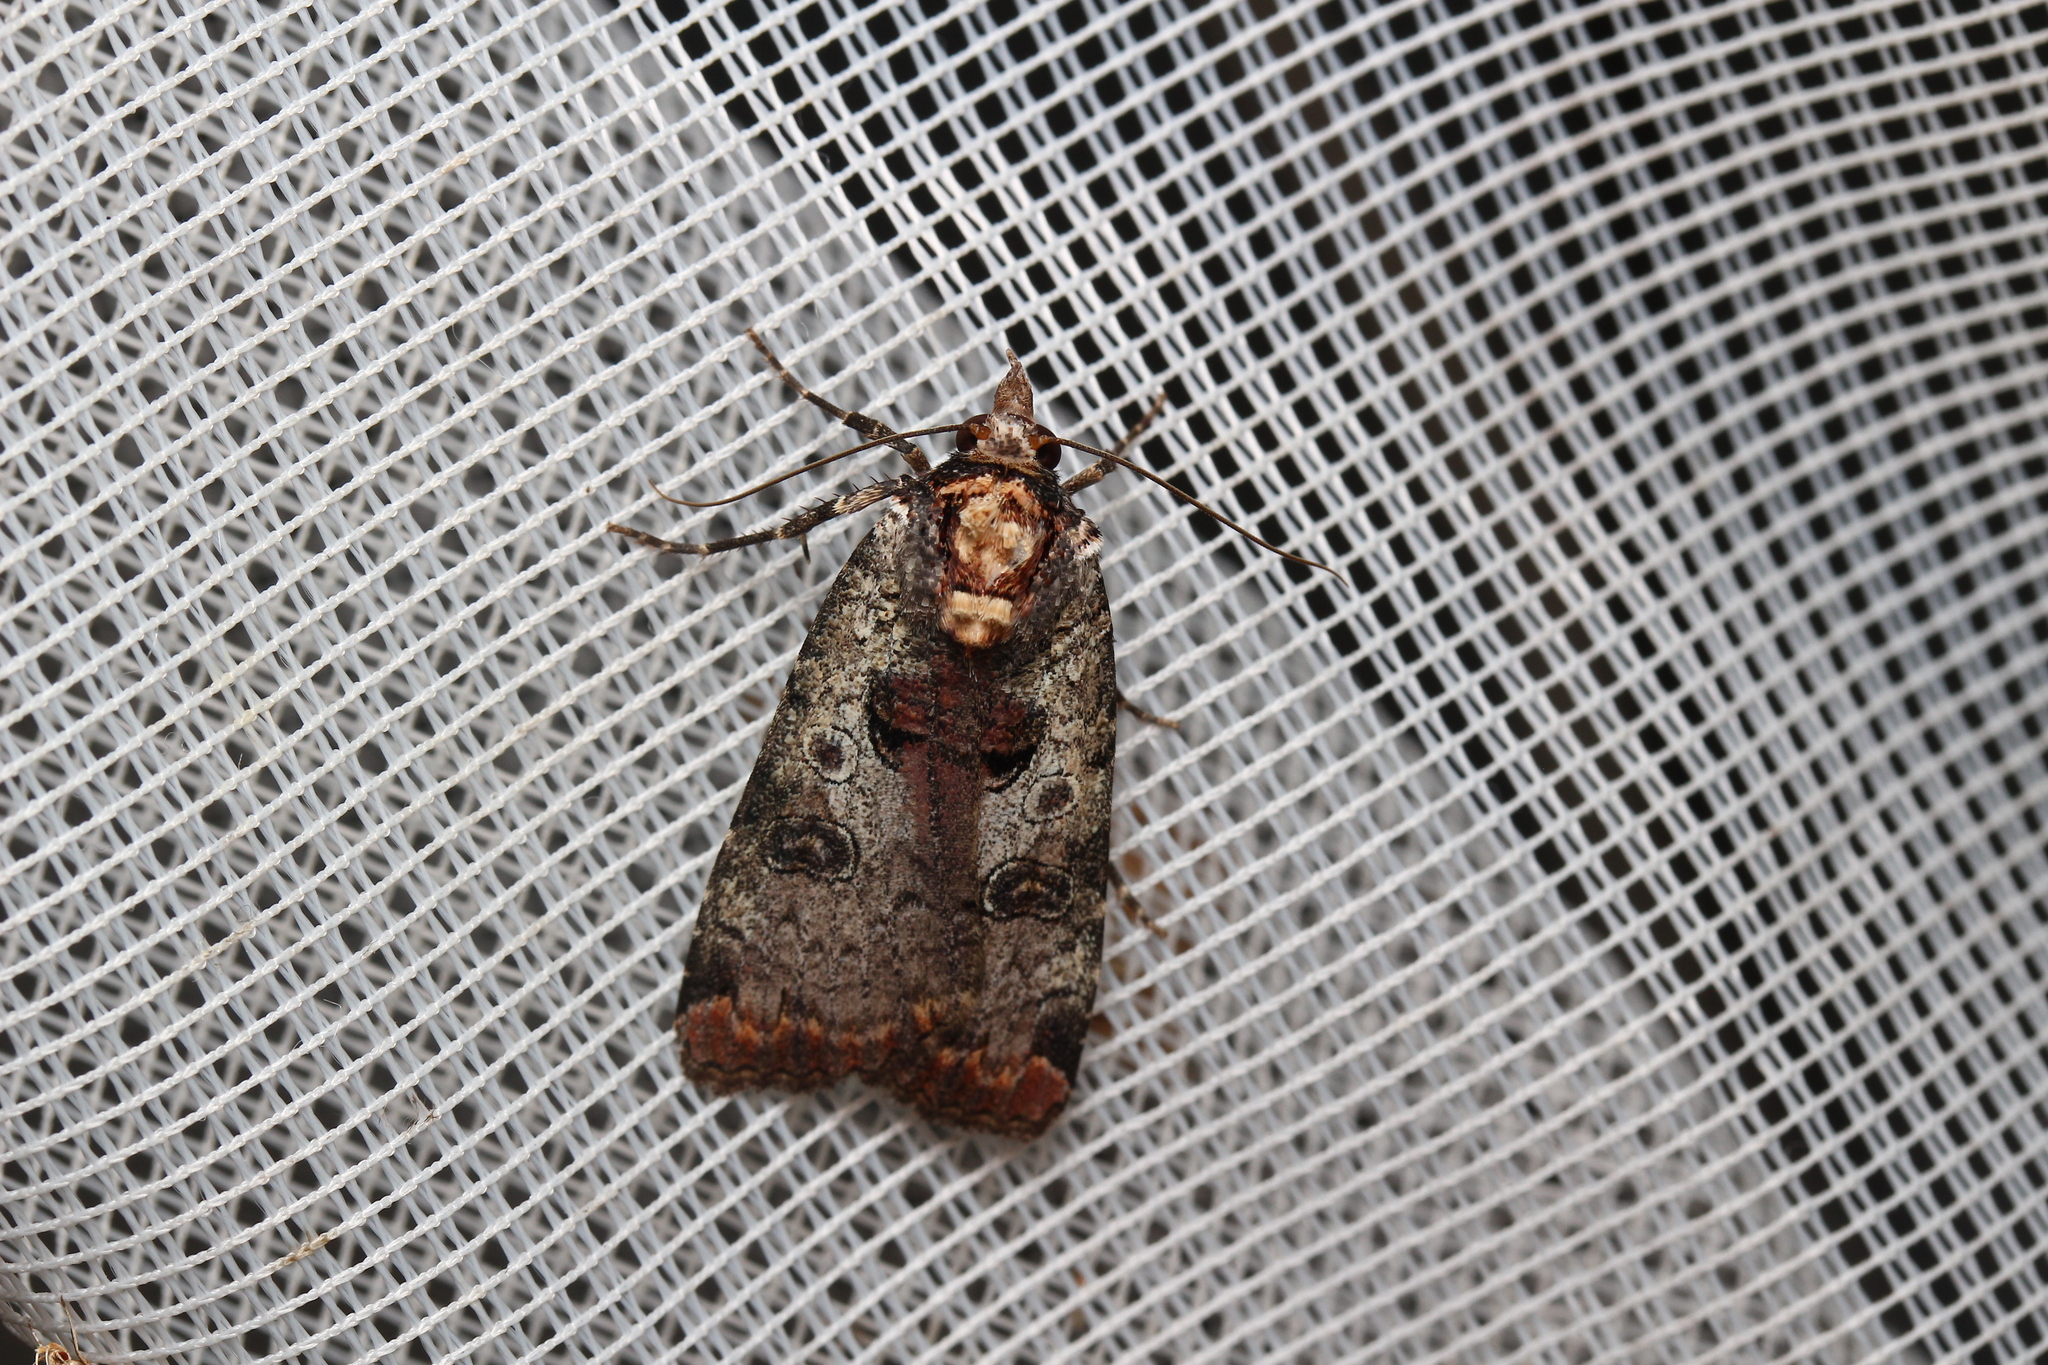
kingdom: Animalia
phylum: Arthropoda
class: Insecta
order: Lepidoptera
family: Noctuidae
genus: Epilecta
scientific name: Epilecta linogrisea
